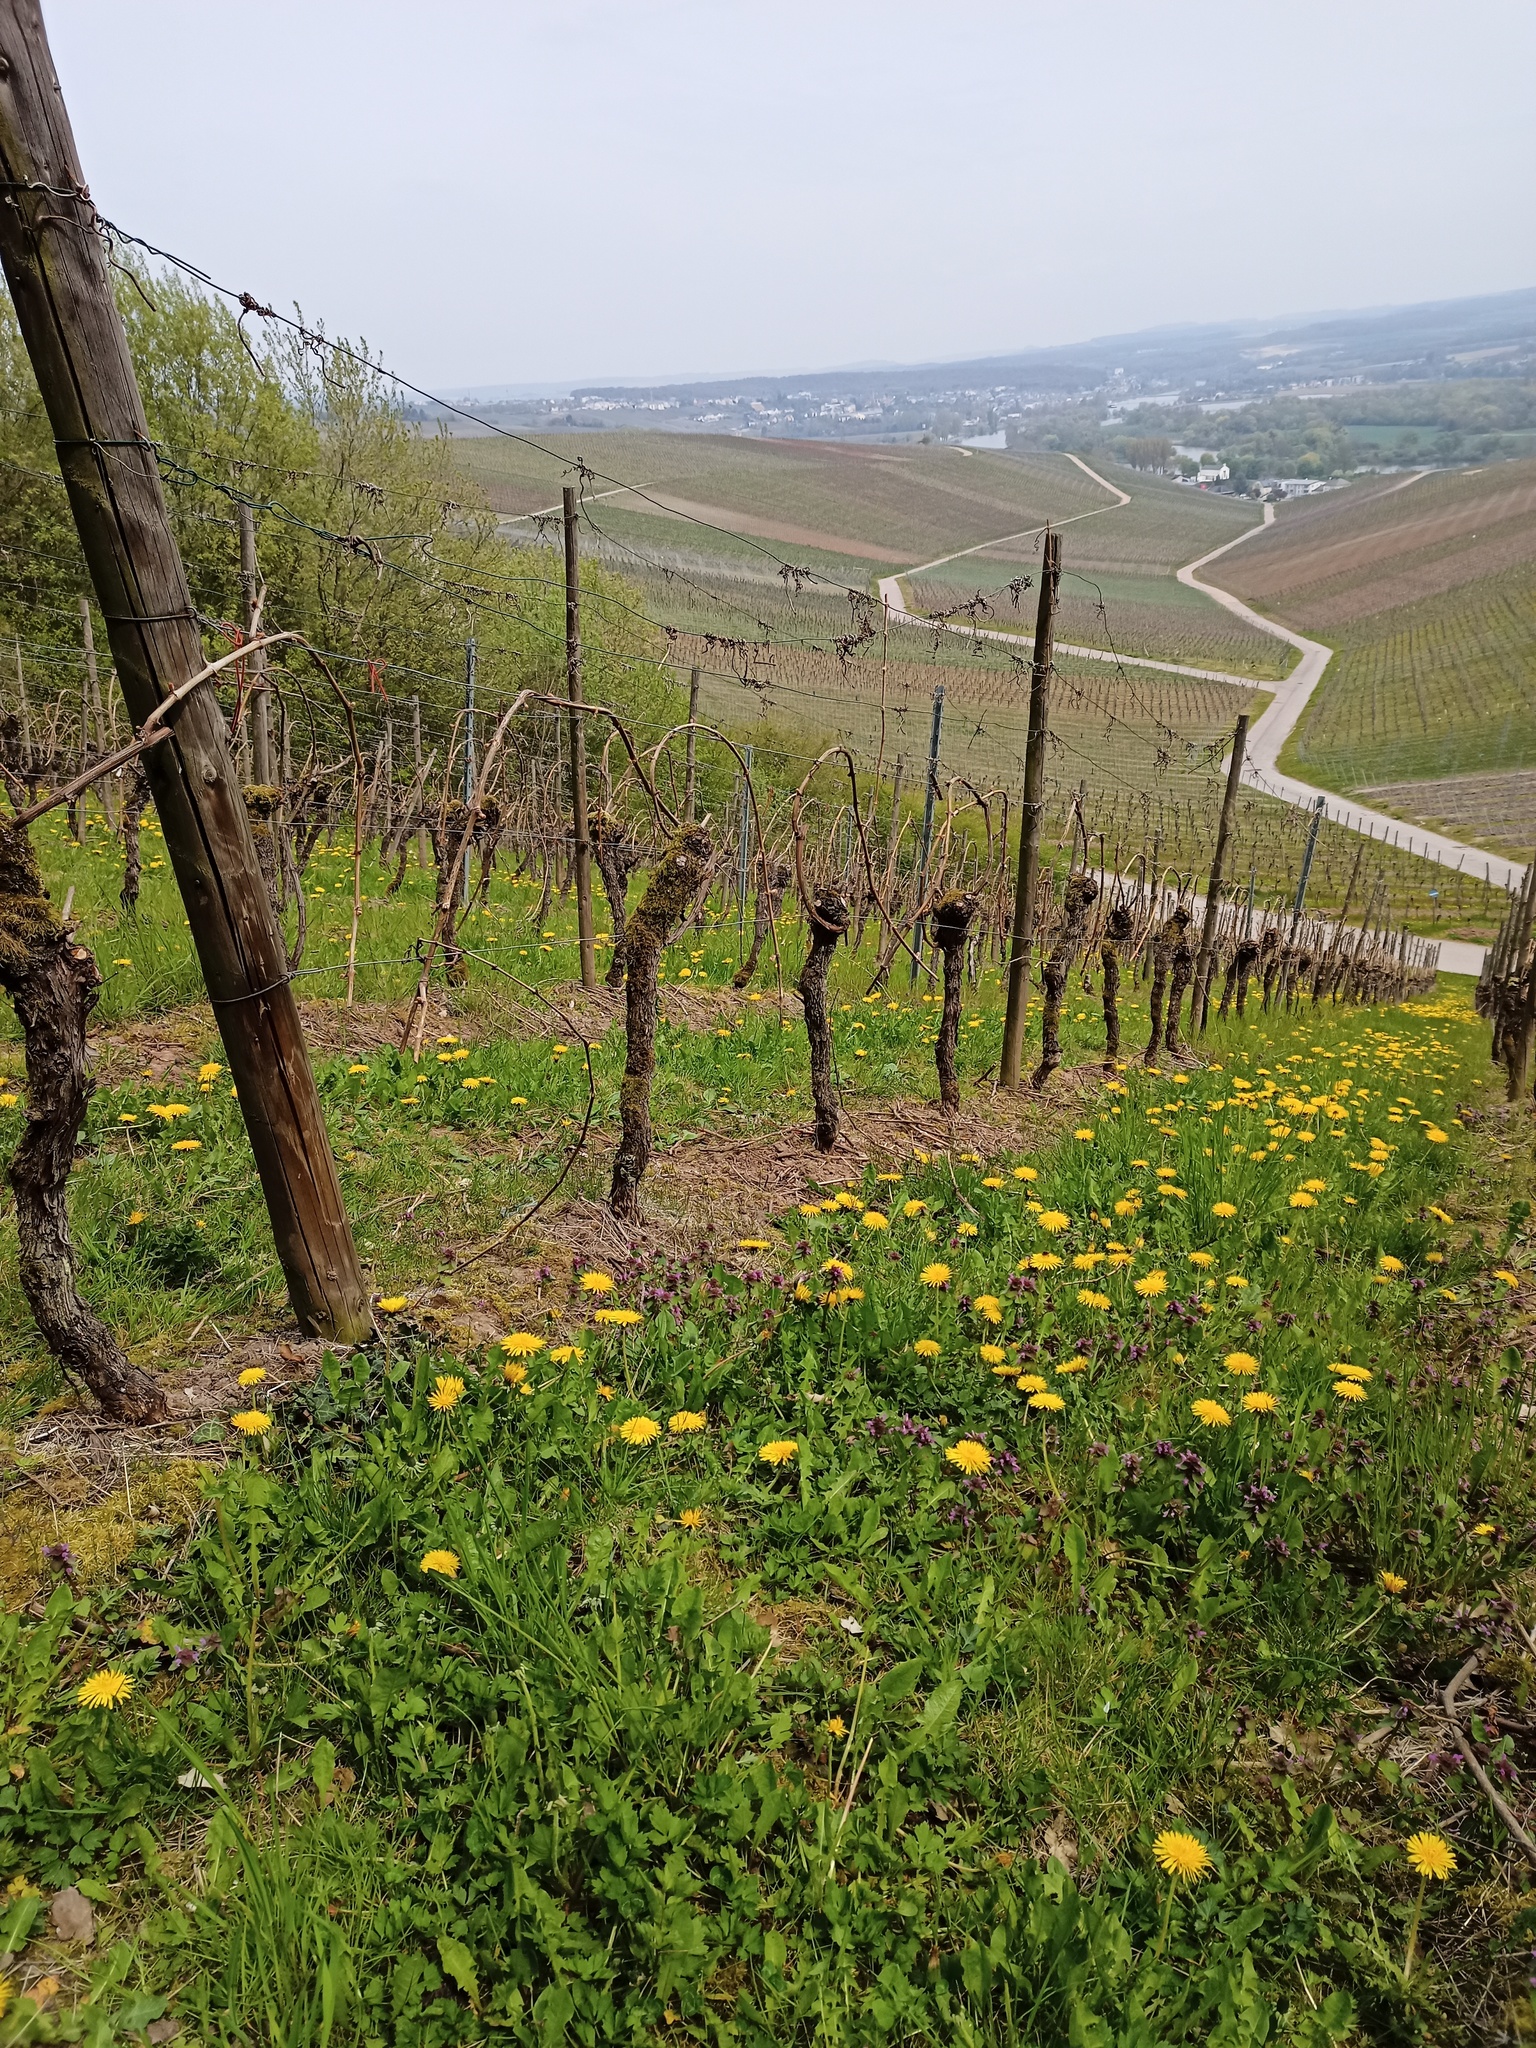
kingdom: Plantae
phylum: Tracheophyta
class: Magnoliopsida
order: Asterales
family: Asteraceae
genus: Taraxacum
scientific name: Taraxacum officinale
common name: Common dandelion
